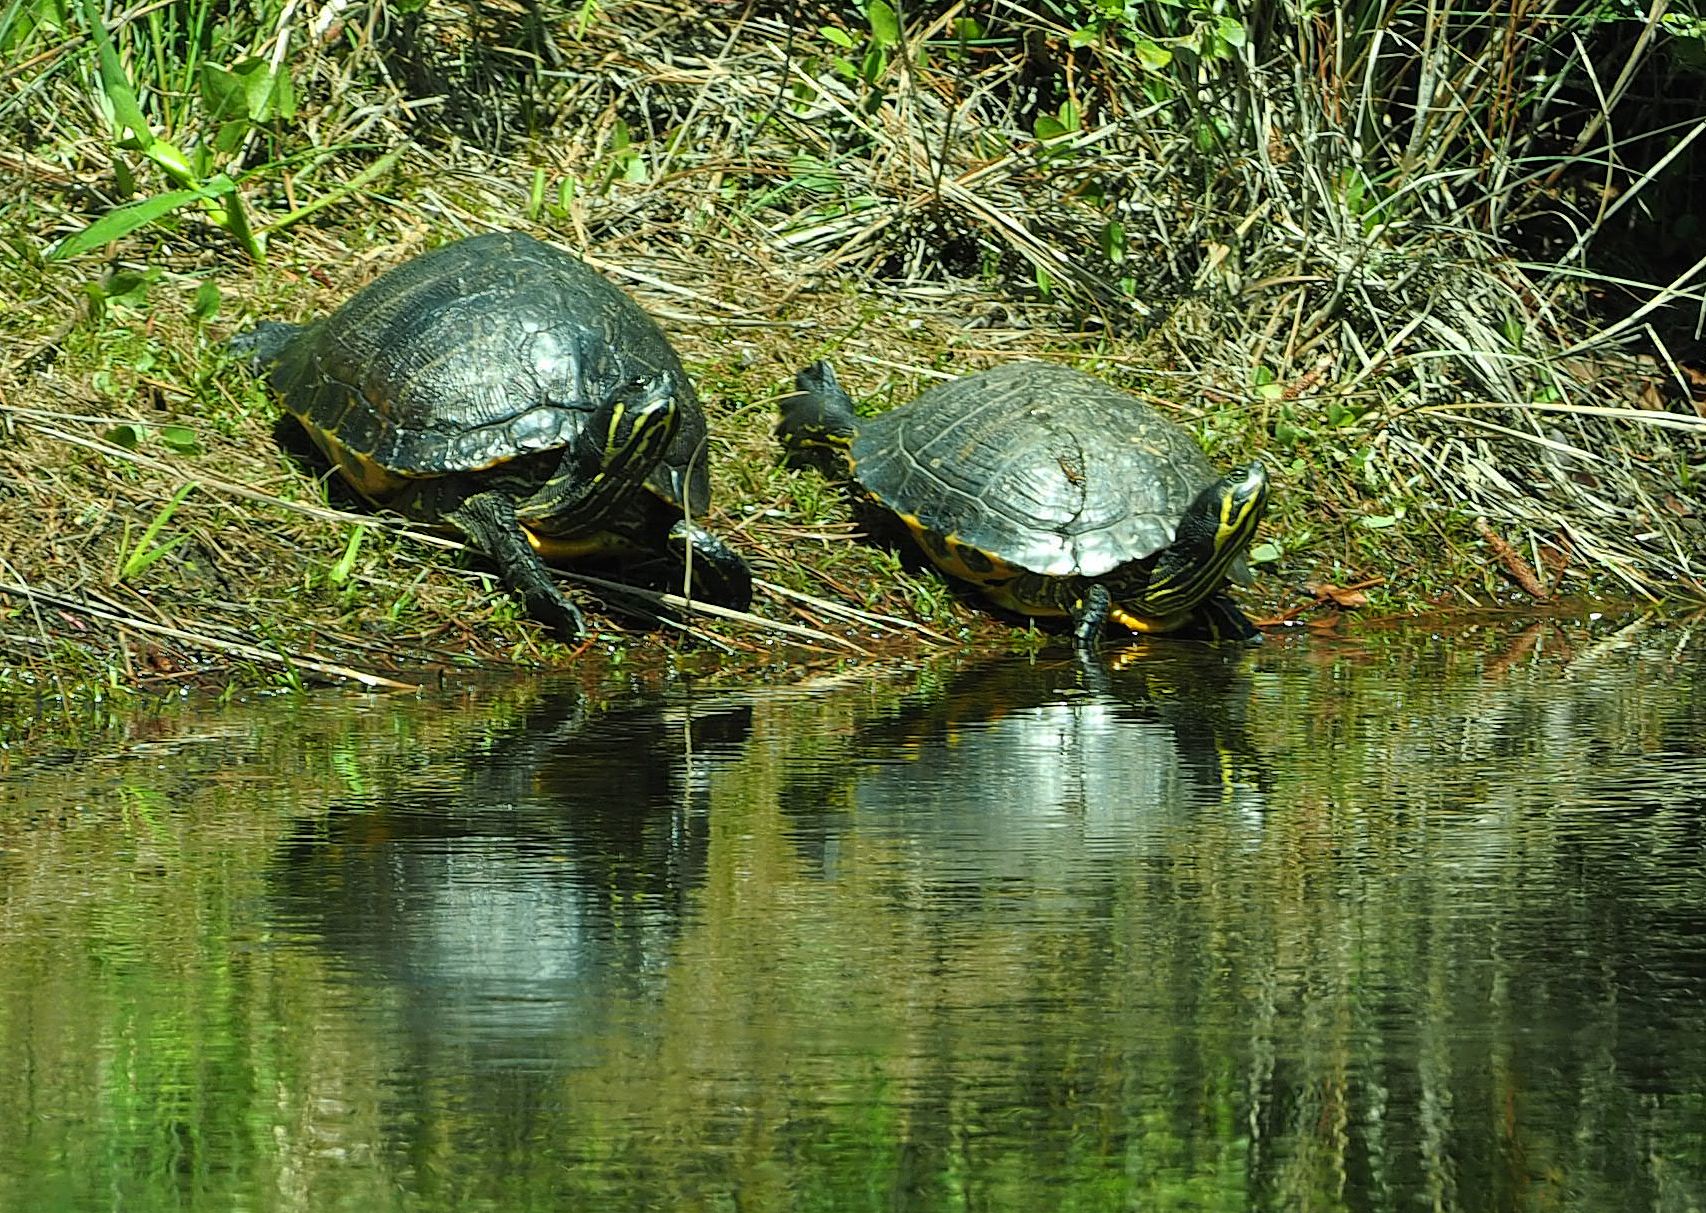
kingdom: Animalia
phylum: Chordata
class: Testudines
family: Emydidae
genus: Trachemys
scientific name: Trachemys scripta
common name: Slider
